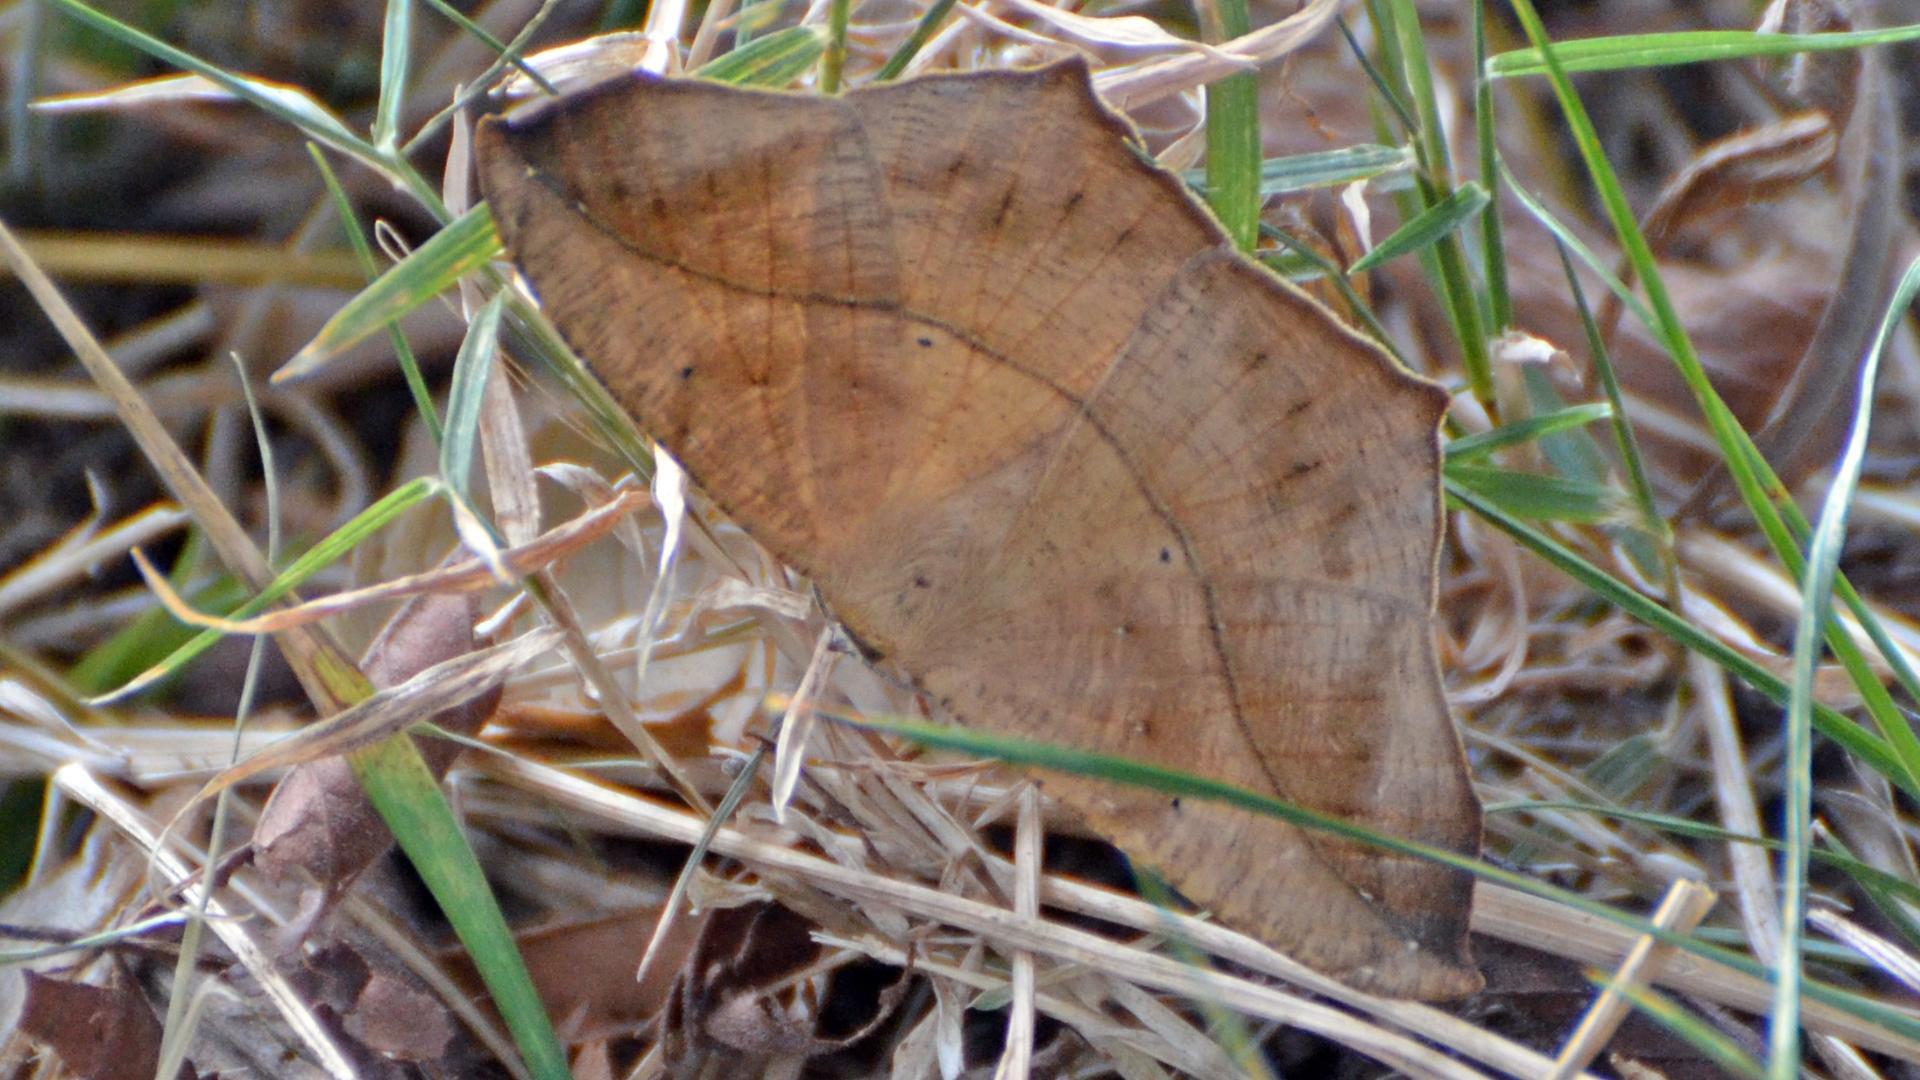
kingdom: Animalia
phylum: Arthropoda
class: Insecta
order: Lepidoptera
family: Geometridae
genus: Prochoerodes
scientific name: Prochoerodes lineola
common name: Large maple spanworm
